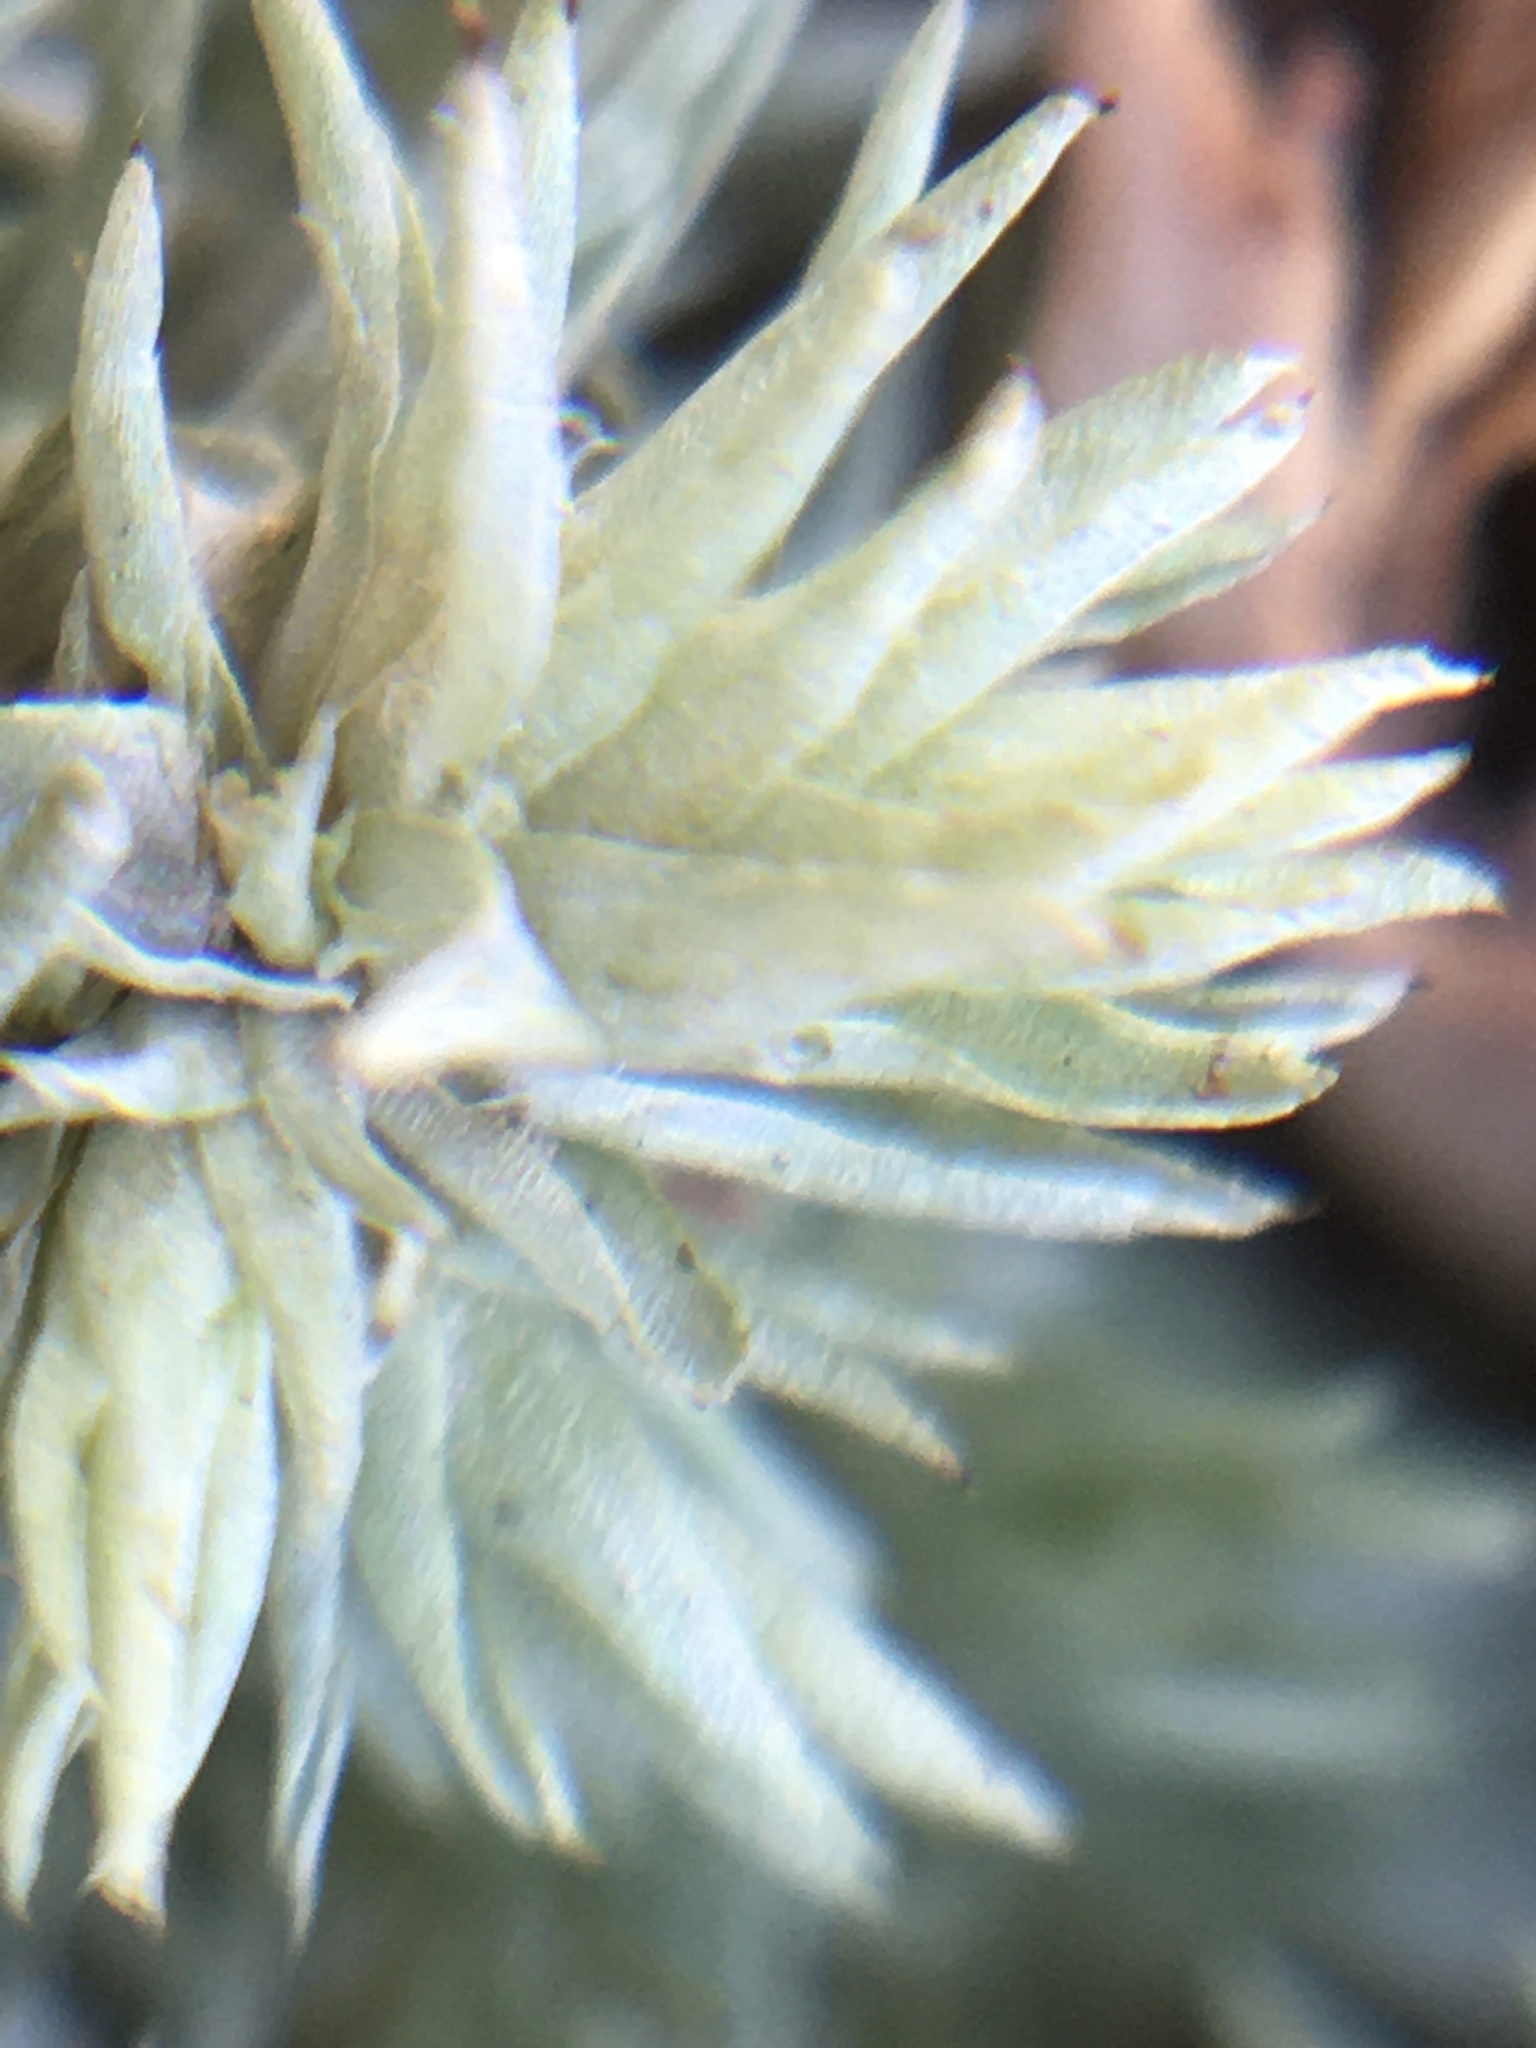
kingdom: Plantae
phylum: Bryophyta
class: Bryopsida
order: Dicranales
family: Leucobryaceae
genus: Leucobryum
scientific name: Leucobryum glaucum
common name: Large white-moss
